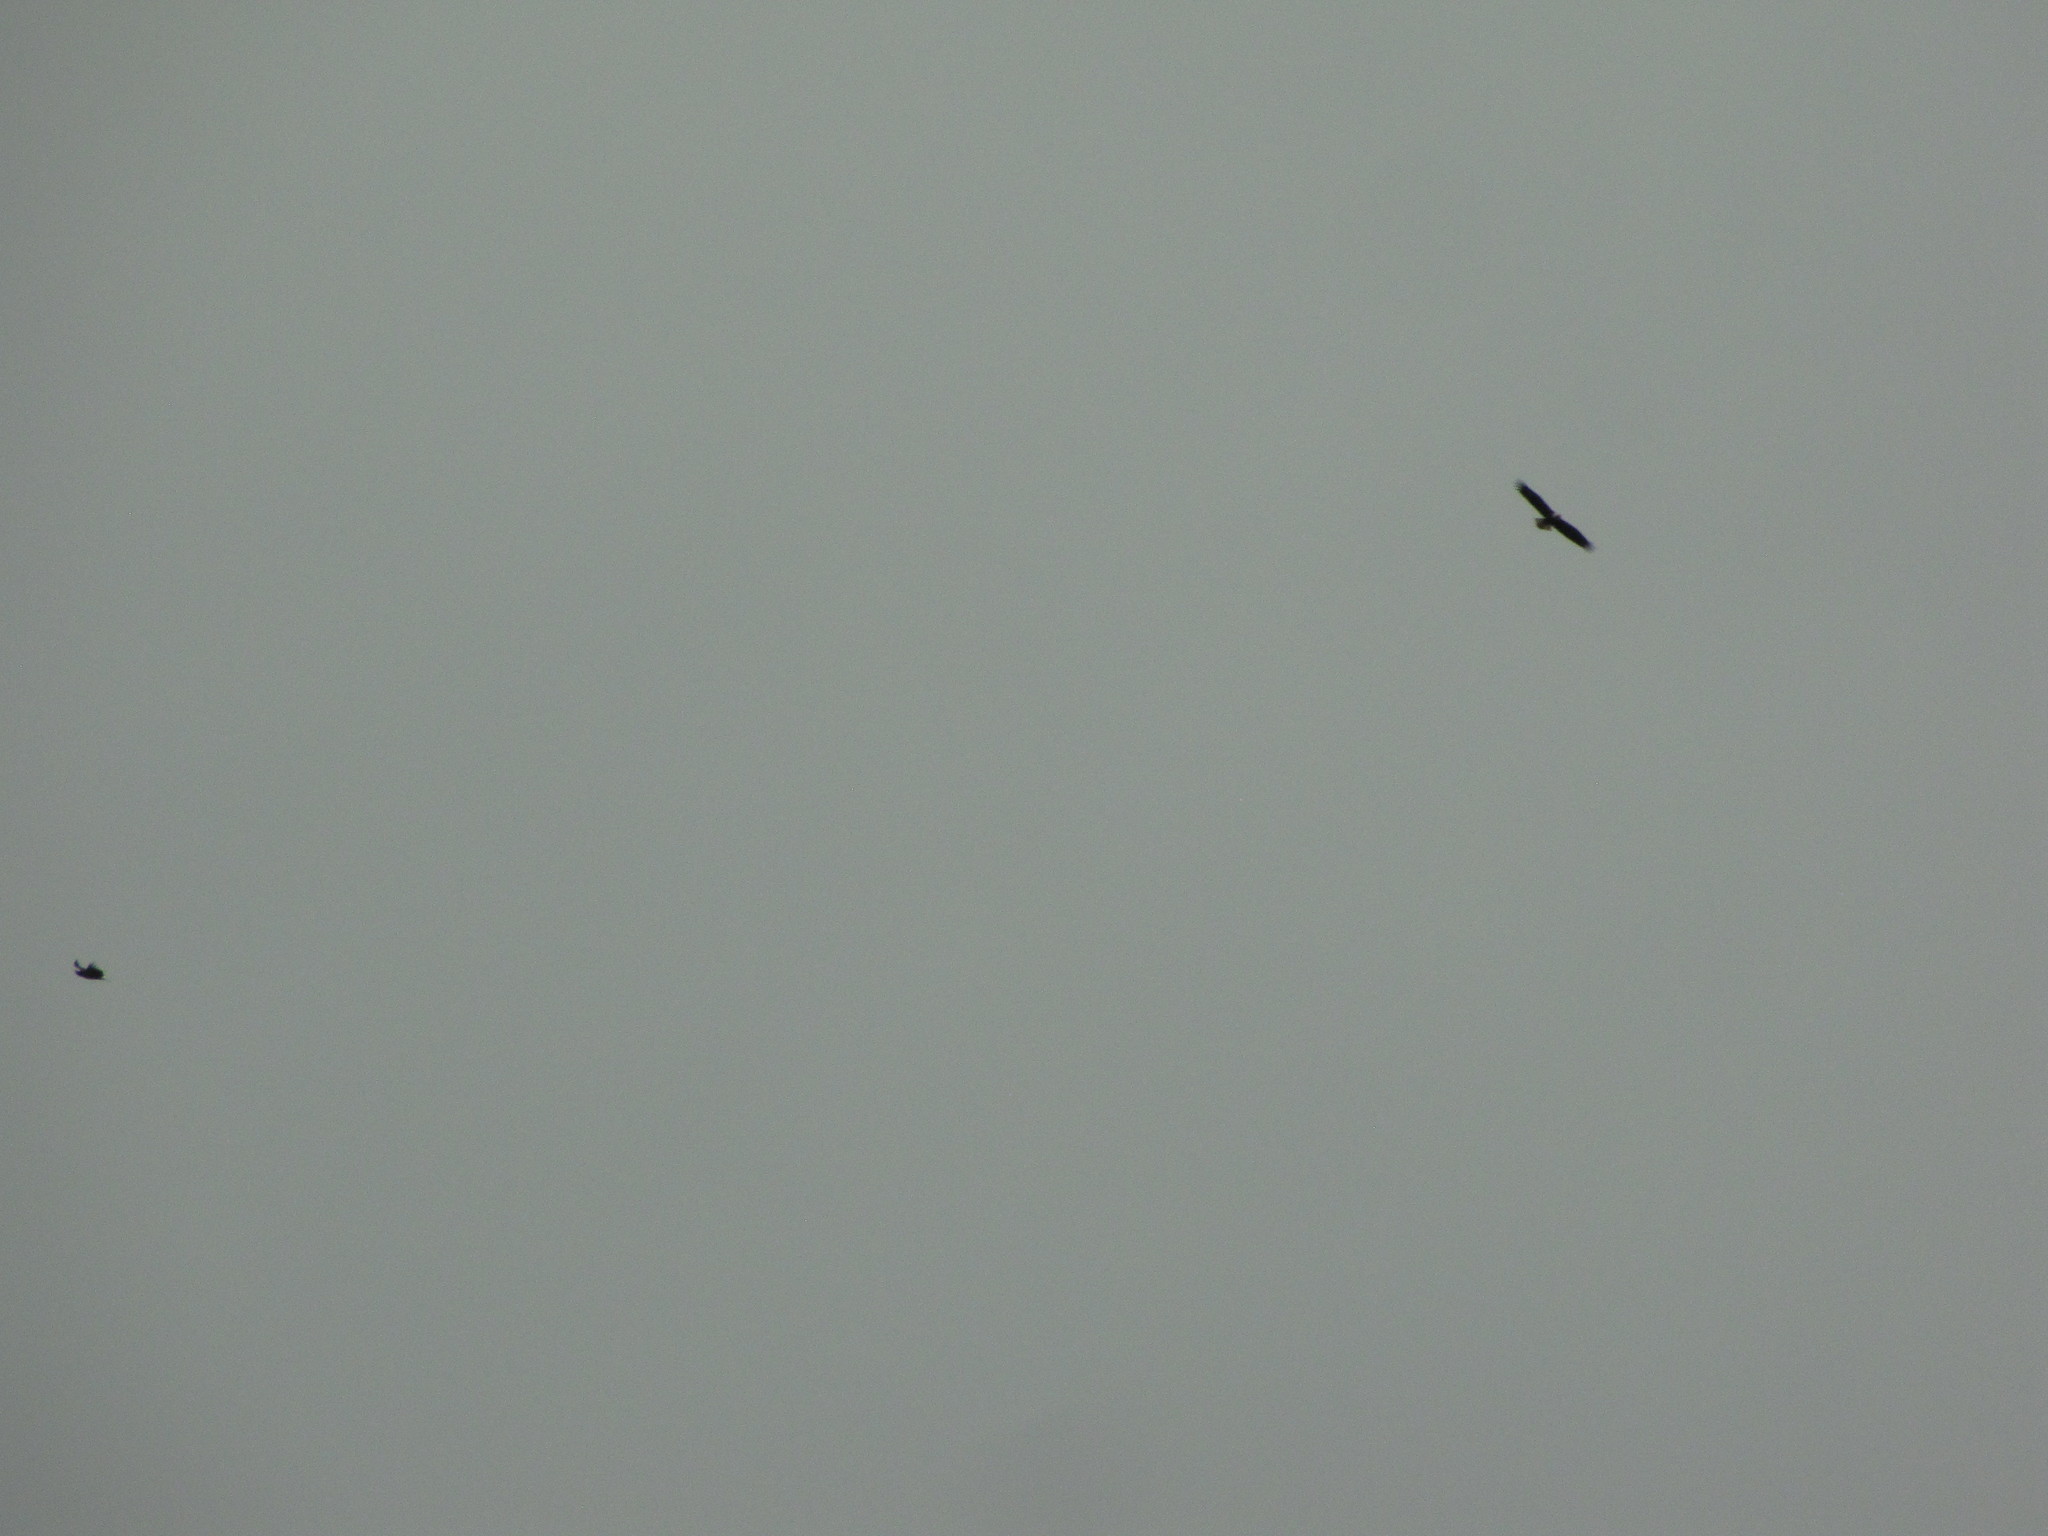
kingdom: Animalia
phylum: Chordata
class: Aves
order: Accipitriformes
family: Accipitridae
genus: Haliaeetus
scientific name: Haliaeetus leucocephalus
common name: Bald eagle
